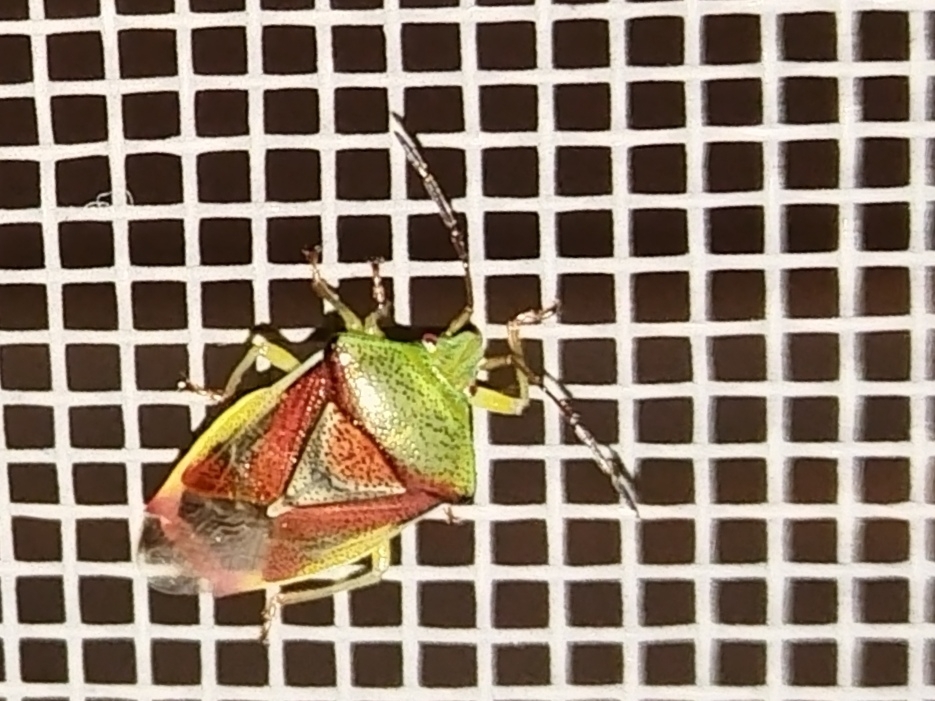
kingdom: Animalia
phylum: Arthropoda
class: Insecta
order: Hemiptera
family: Acanthosomatidae
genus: Elasmostethus
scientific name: Elasmostethus interstinctus
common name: Birch shieldbug
